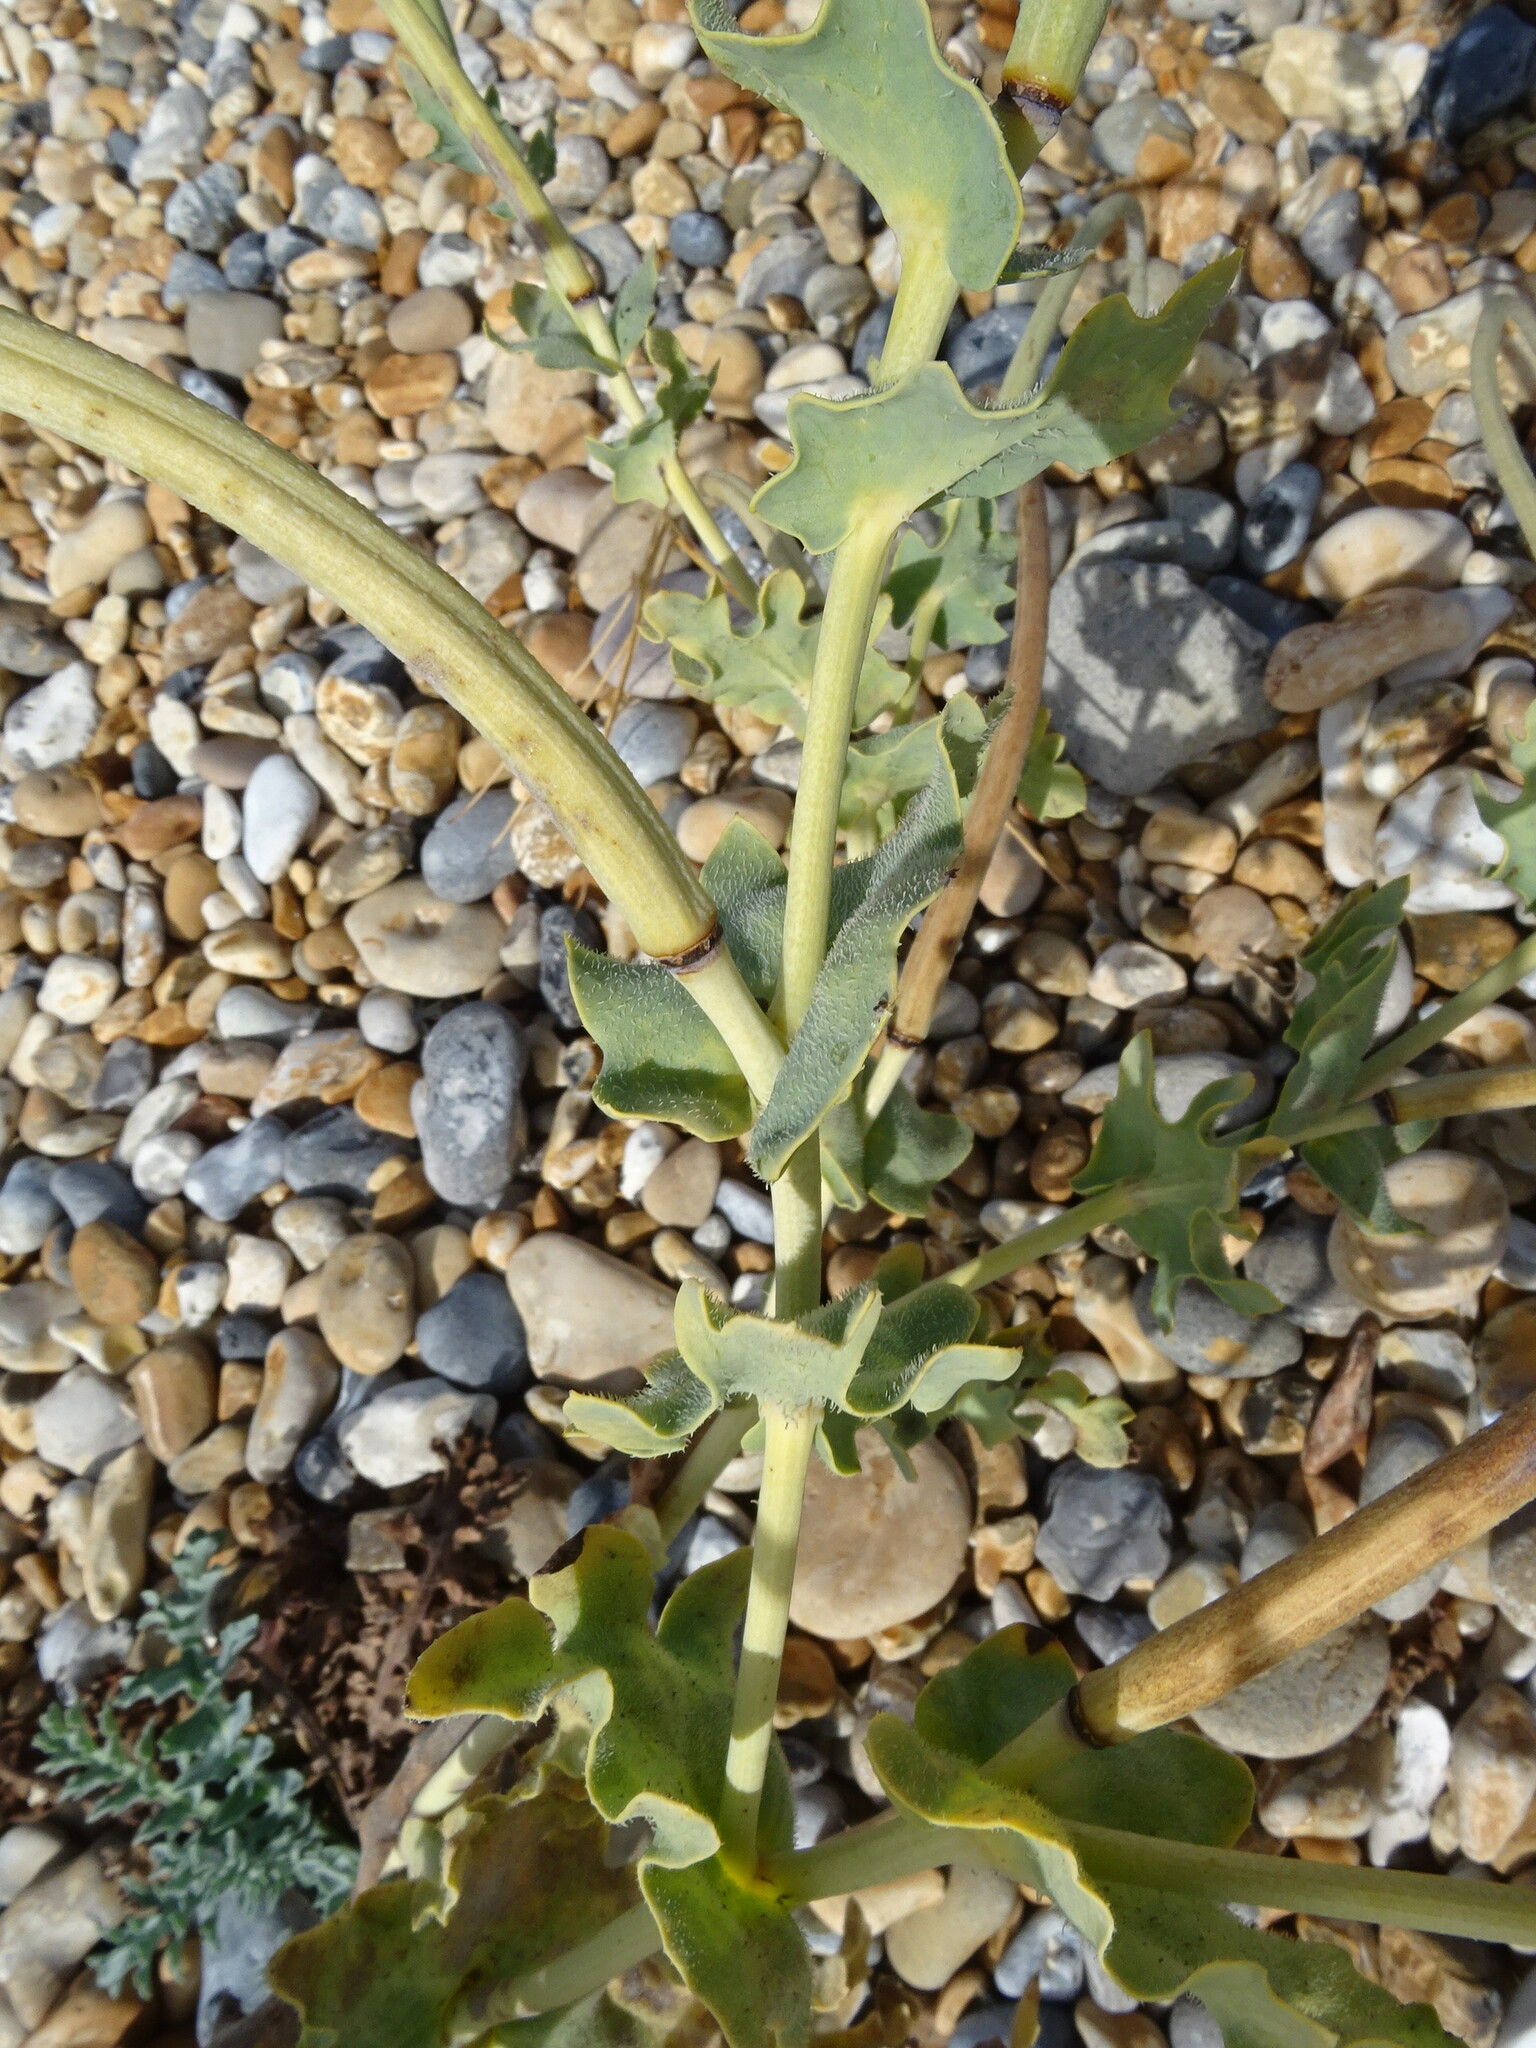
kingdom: Plantae
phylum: Tracheophyta
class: Magnoliopsida
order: Ranunculales
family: Papaveraceae
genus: Glaucium
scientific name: Glaucium flavum
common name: Yellow horned-poppy
